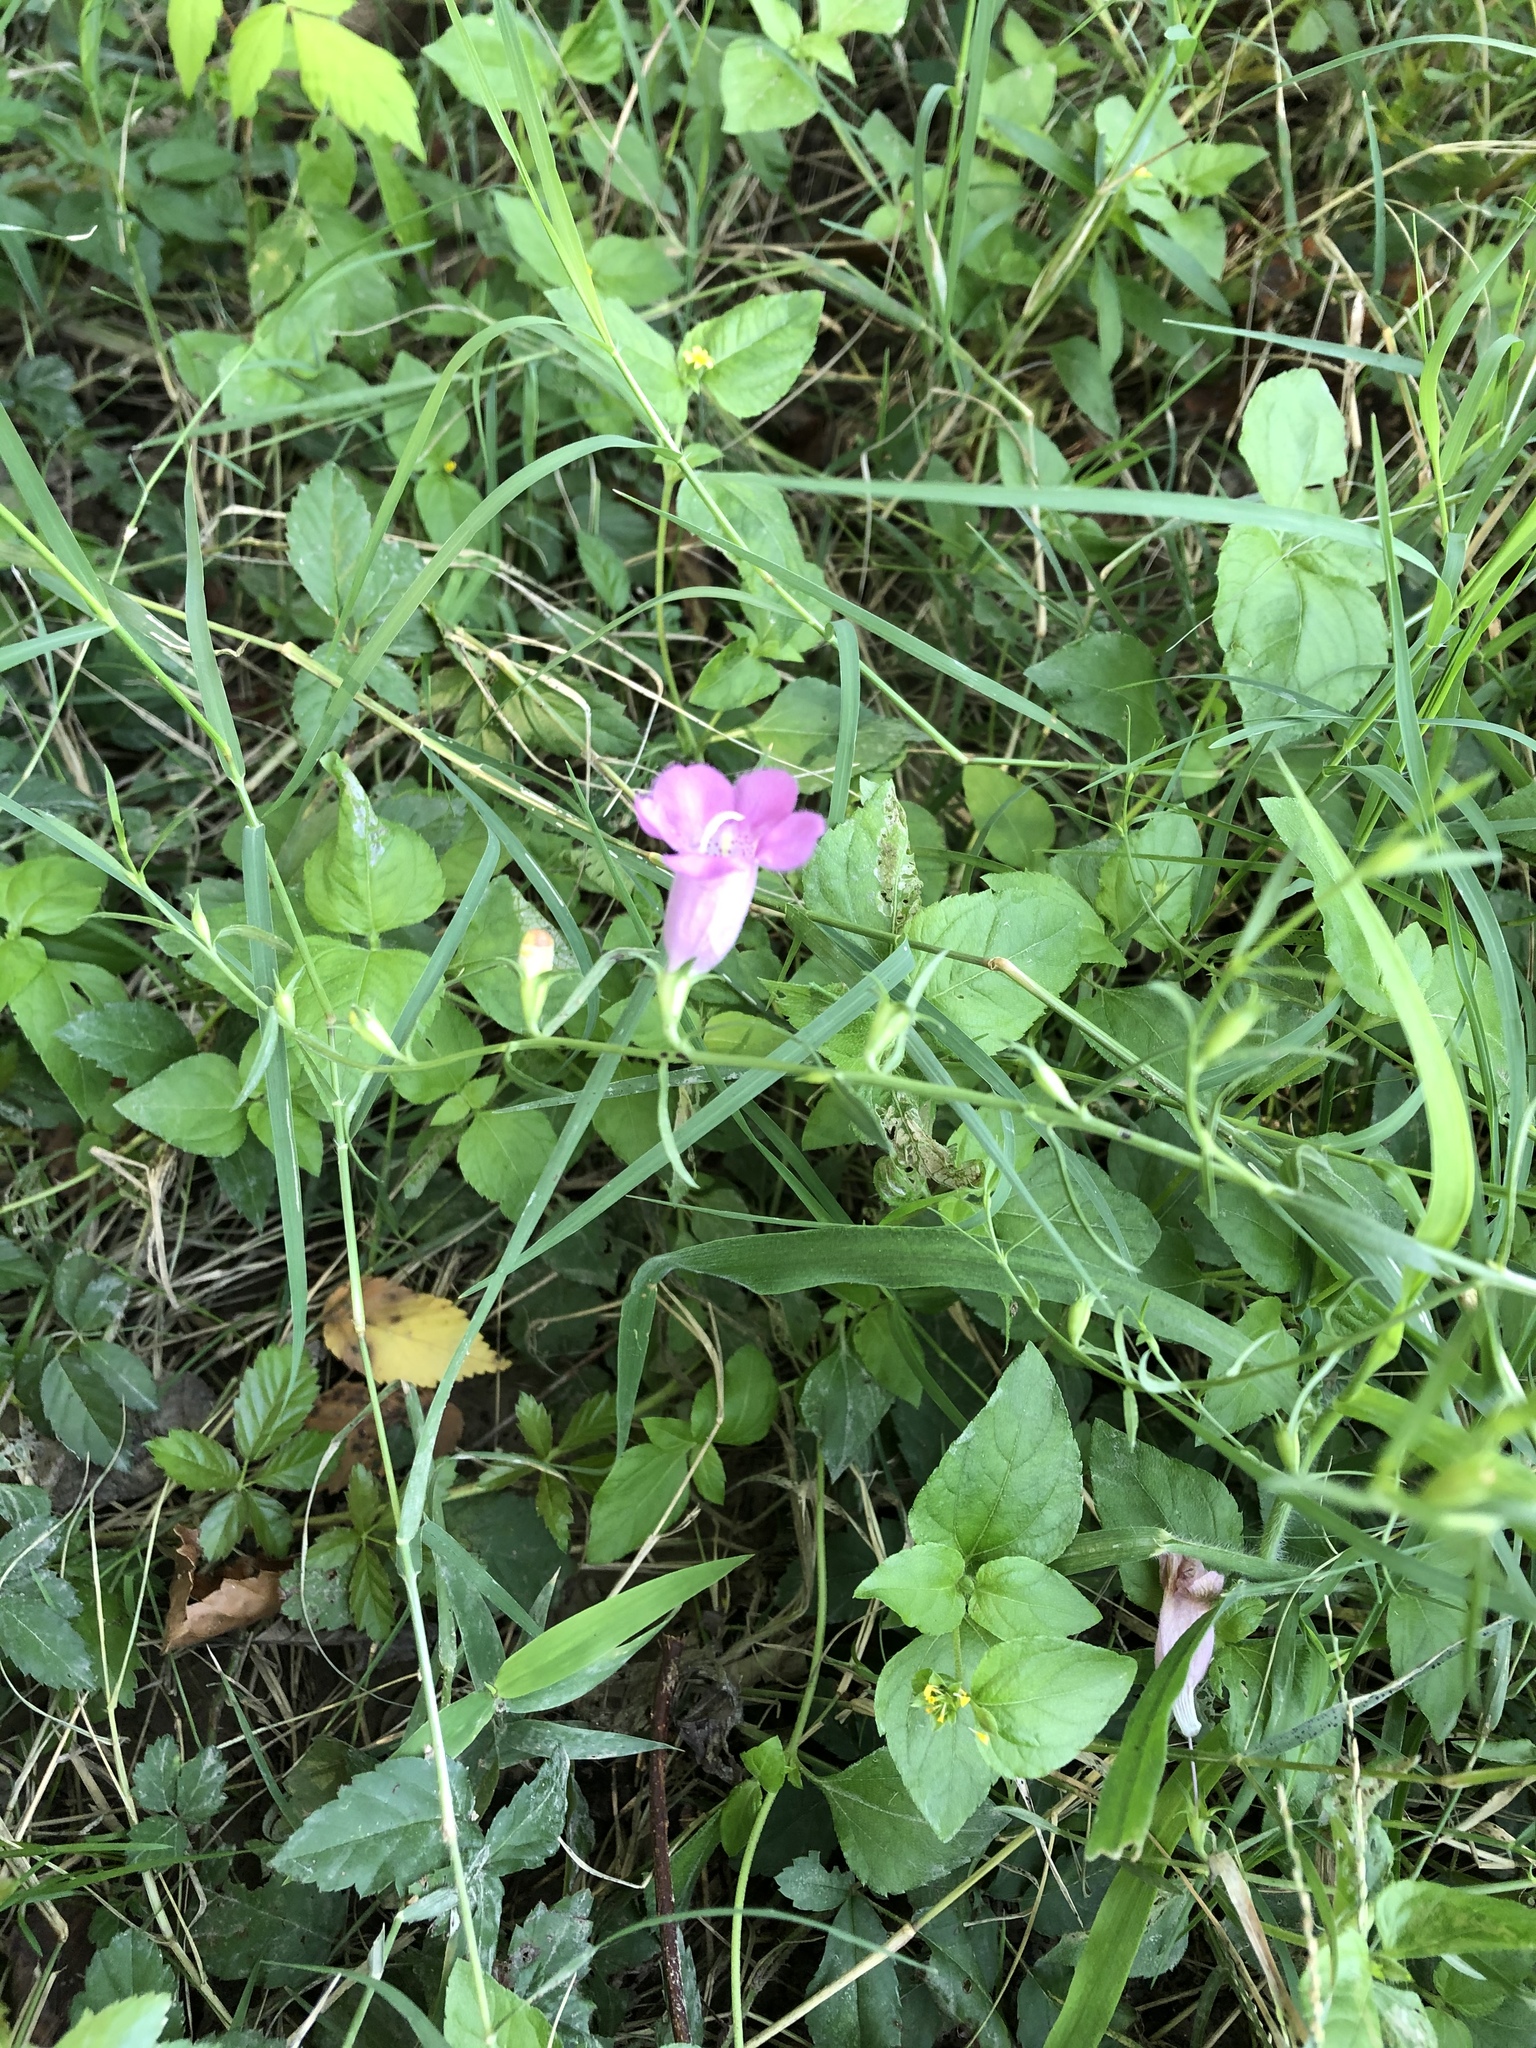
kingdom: Plantae
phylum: Tracheophyta
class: Magnoliopsida
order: Lamiales
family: Orobanchaceae
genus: Agalinis
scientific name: Agalinis heterophylla
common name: Prairie agalinis
